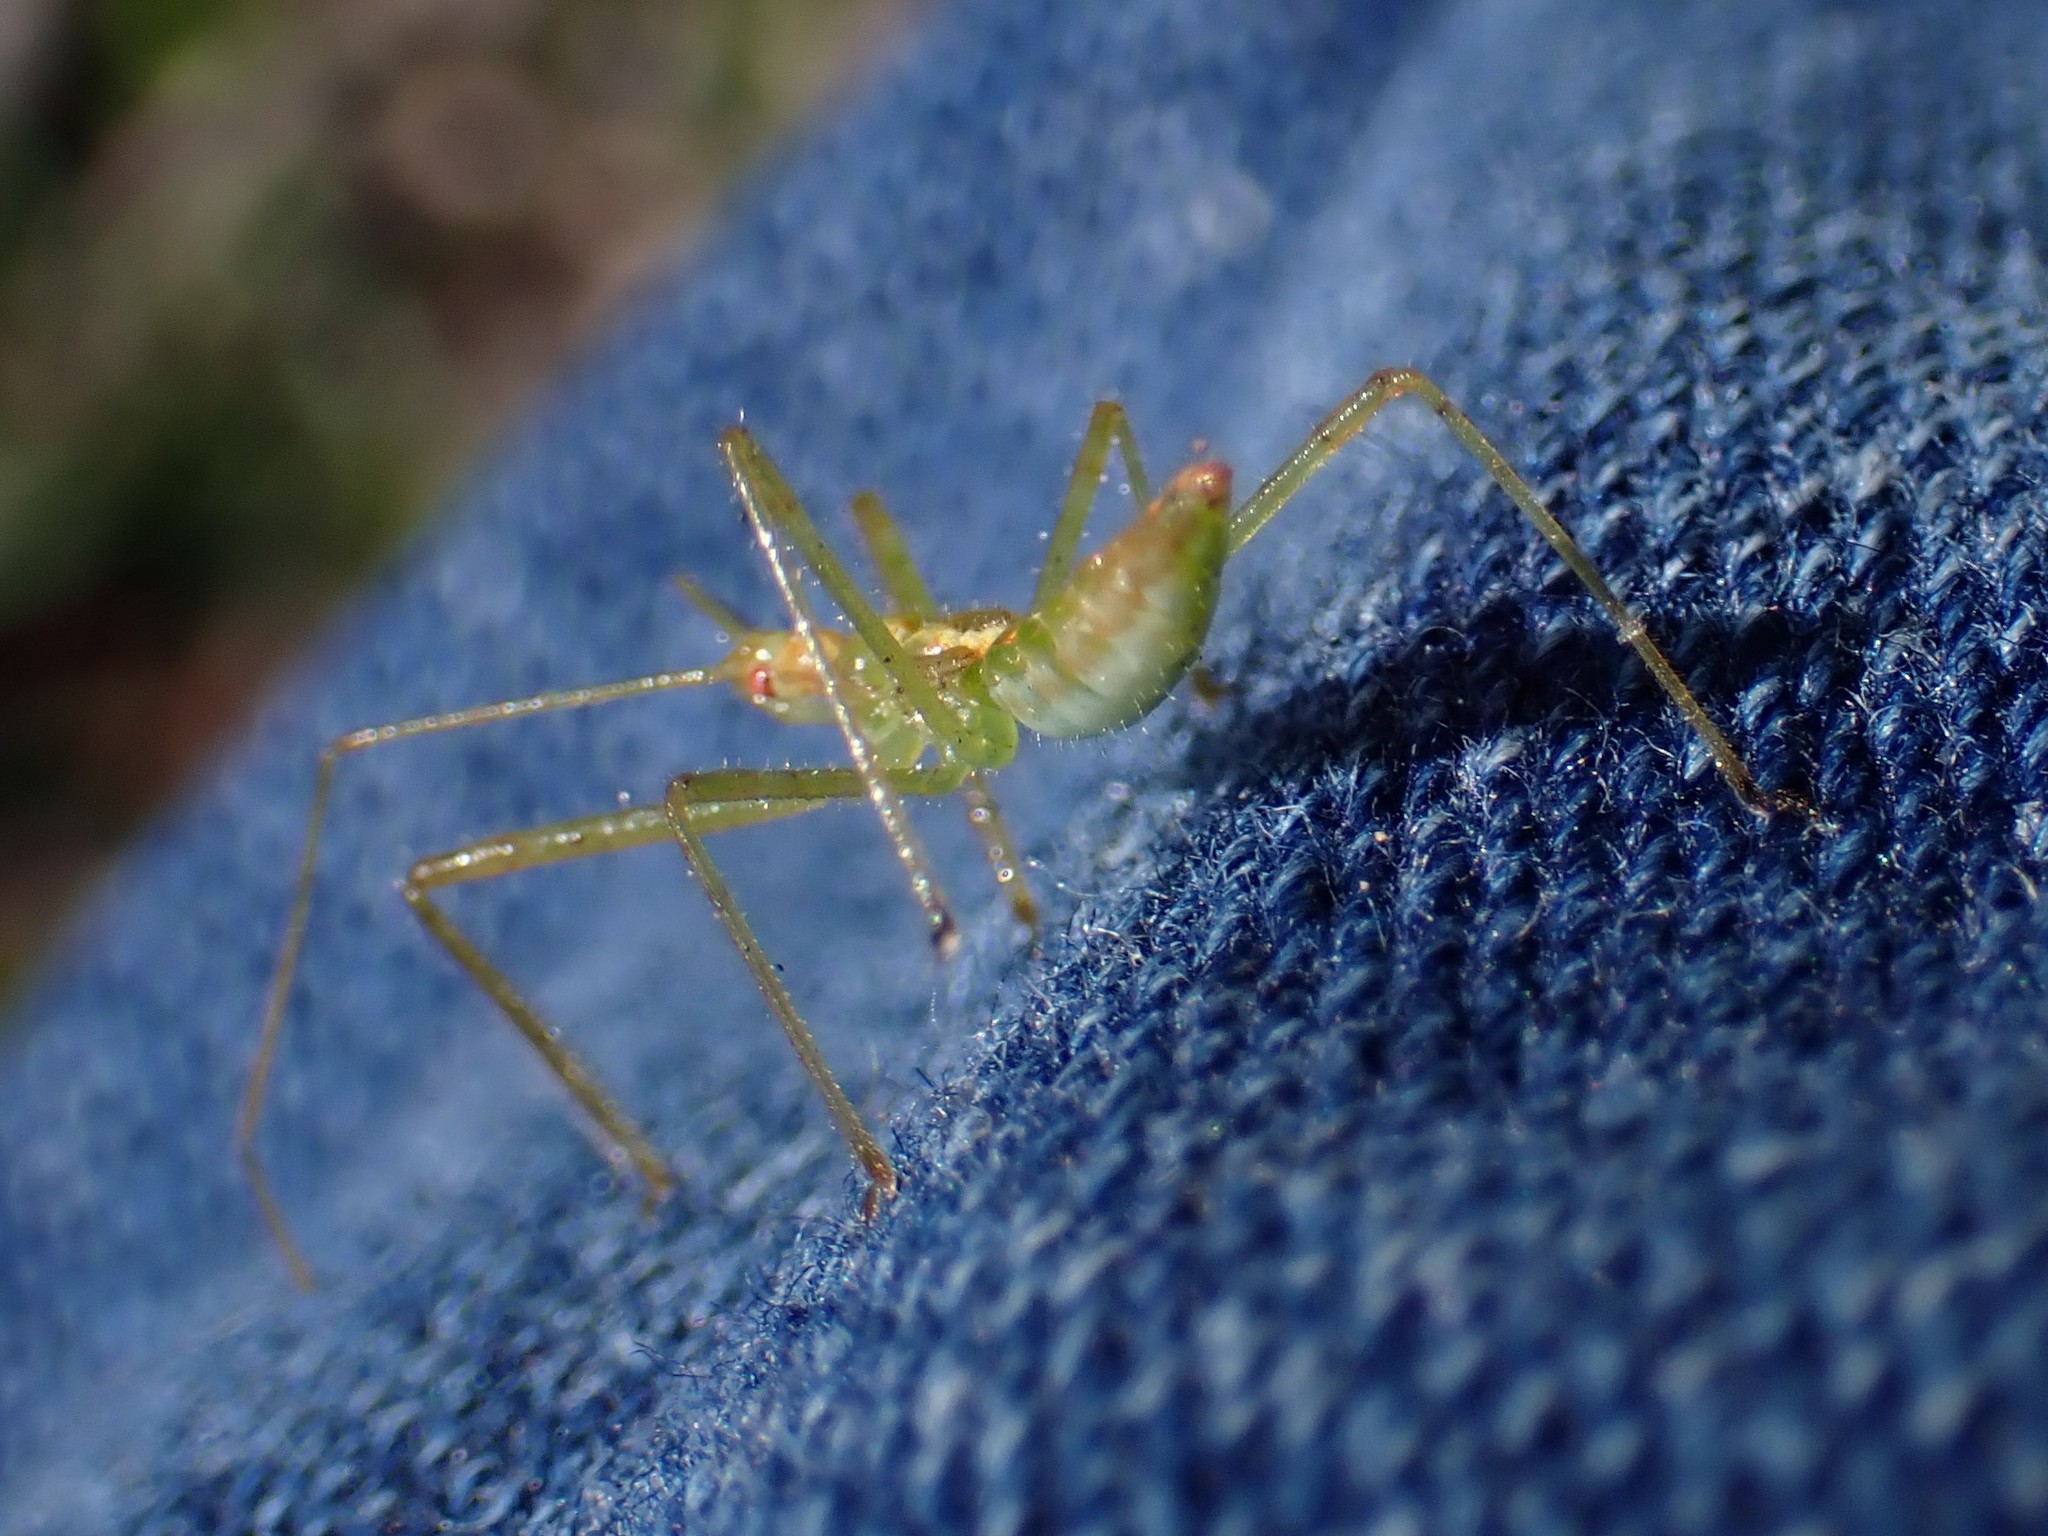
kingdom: Animalia
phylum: Arthropoda
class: Insecta
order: Hemiptera
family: Reduviidae
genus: Zelus
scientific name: Zelus luridus
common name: Pale green assassin bug
